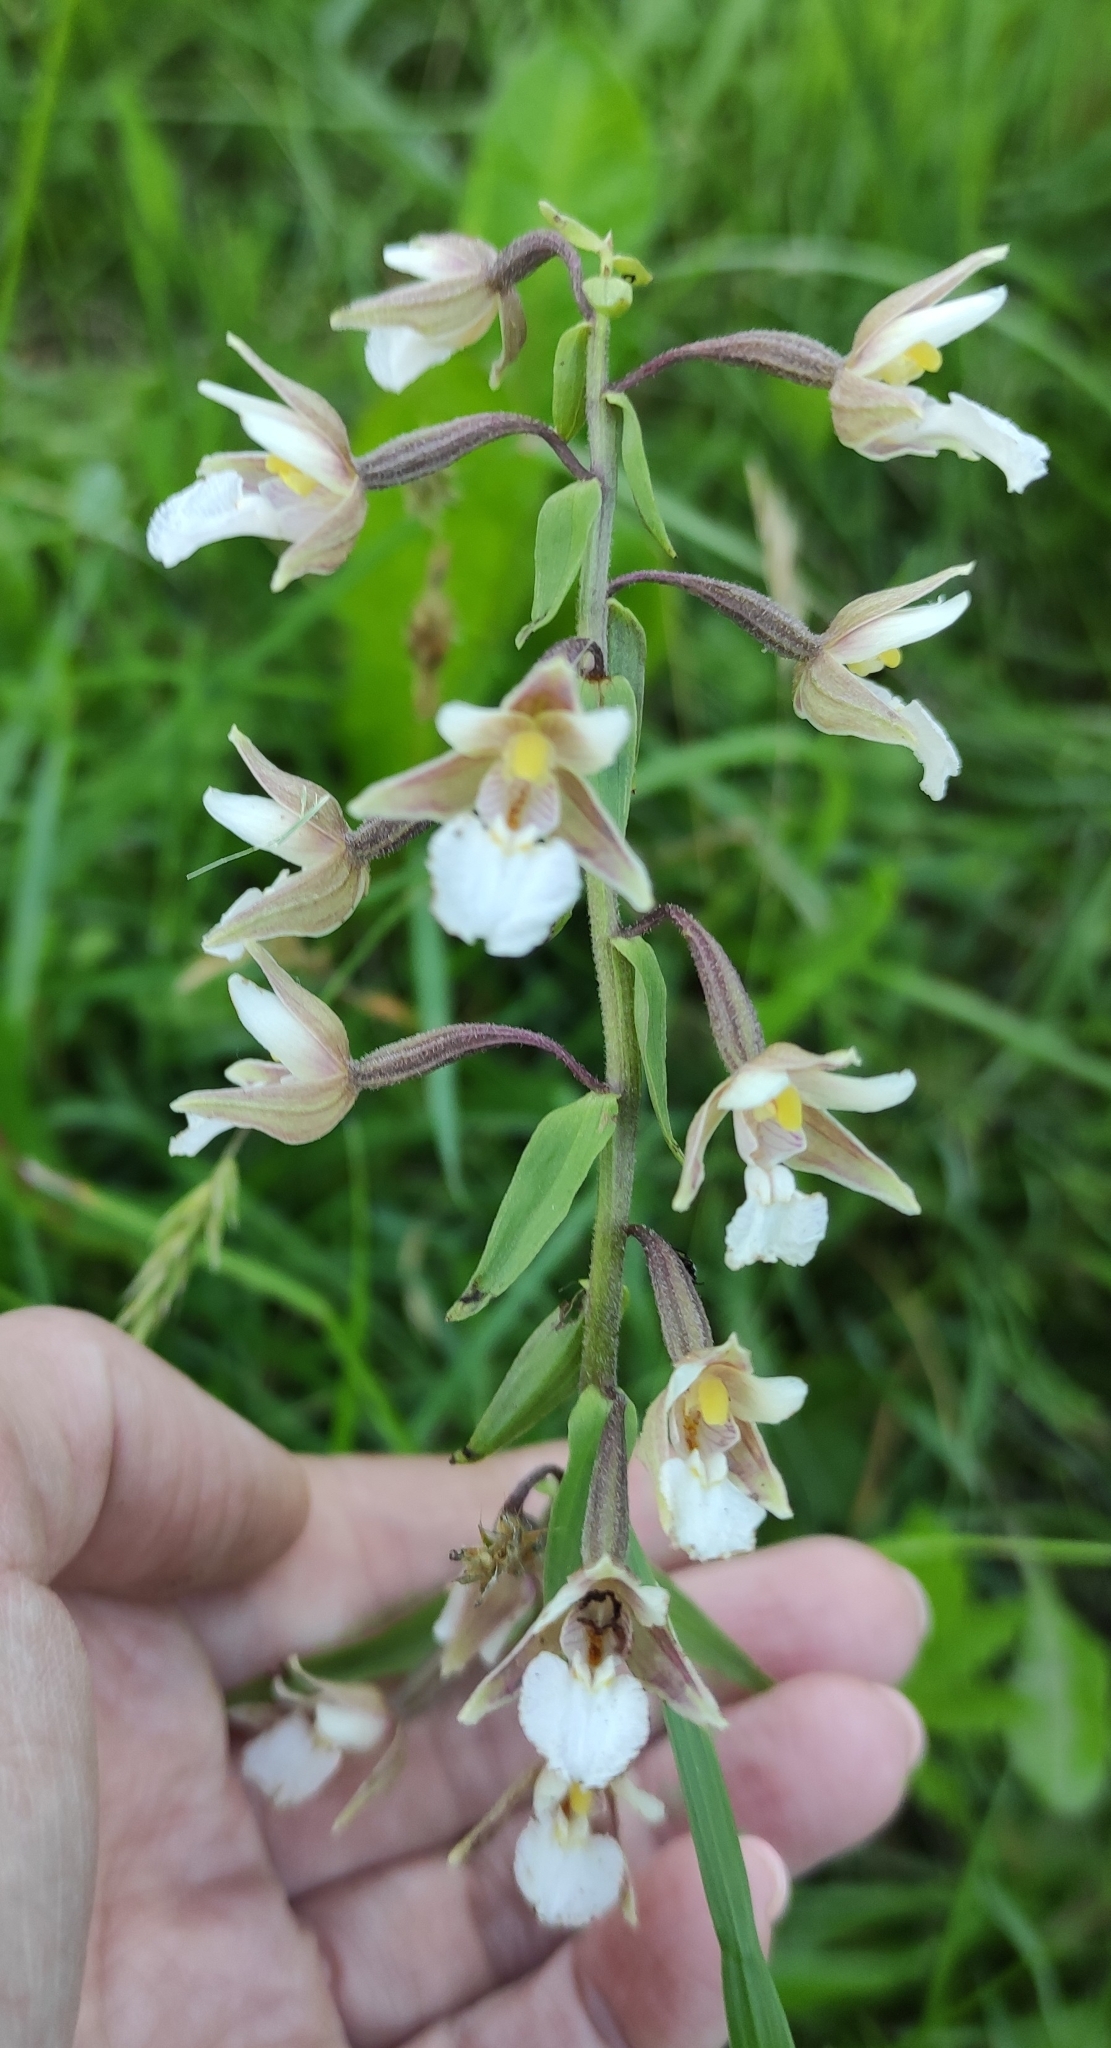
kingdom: Plantae
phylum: Tracheophyta
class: Liliopsida
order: Asparagales
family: Orchidaceae
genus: Epipactis
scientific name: Epipactis palustris
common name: Marsh helleborine
